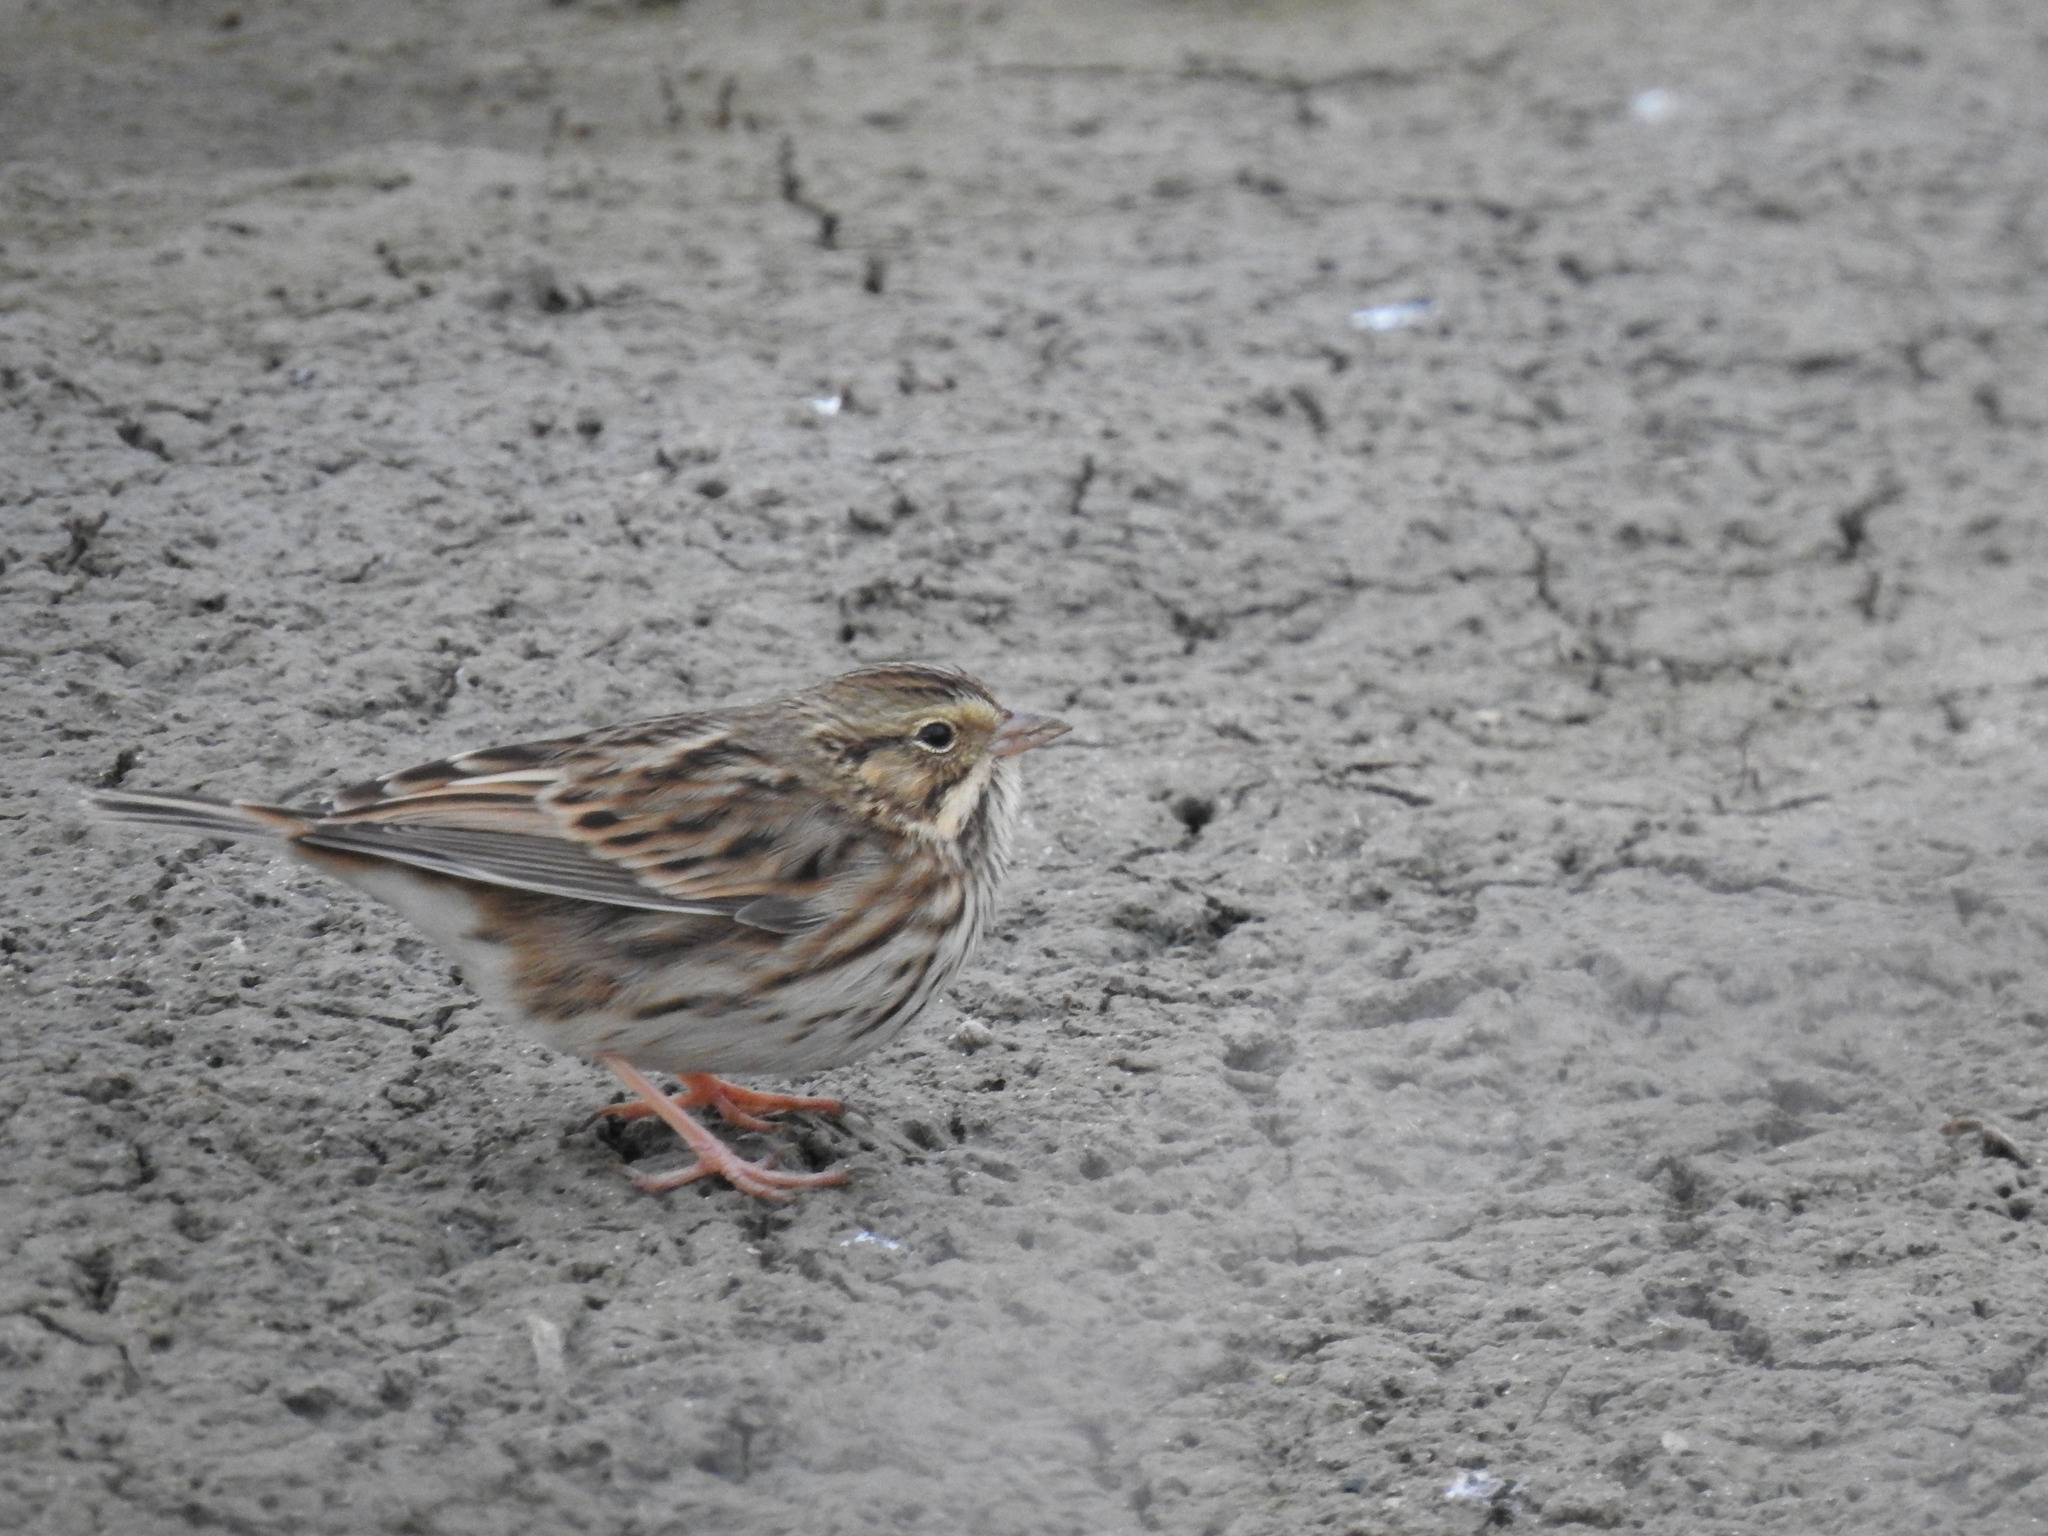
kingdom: Animalia
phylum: Chordata
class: Aves
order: Passeriformes
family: Passerellidae
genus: Passerculus
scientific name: Passerculus sandwichensis
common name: Savannah sparrow
